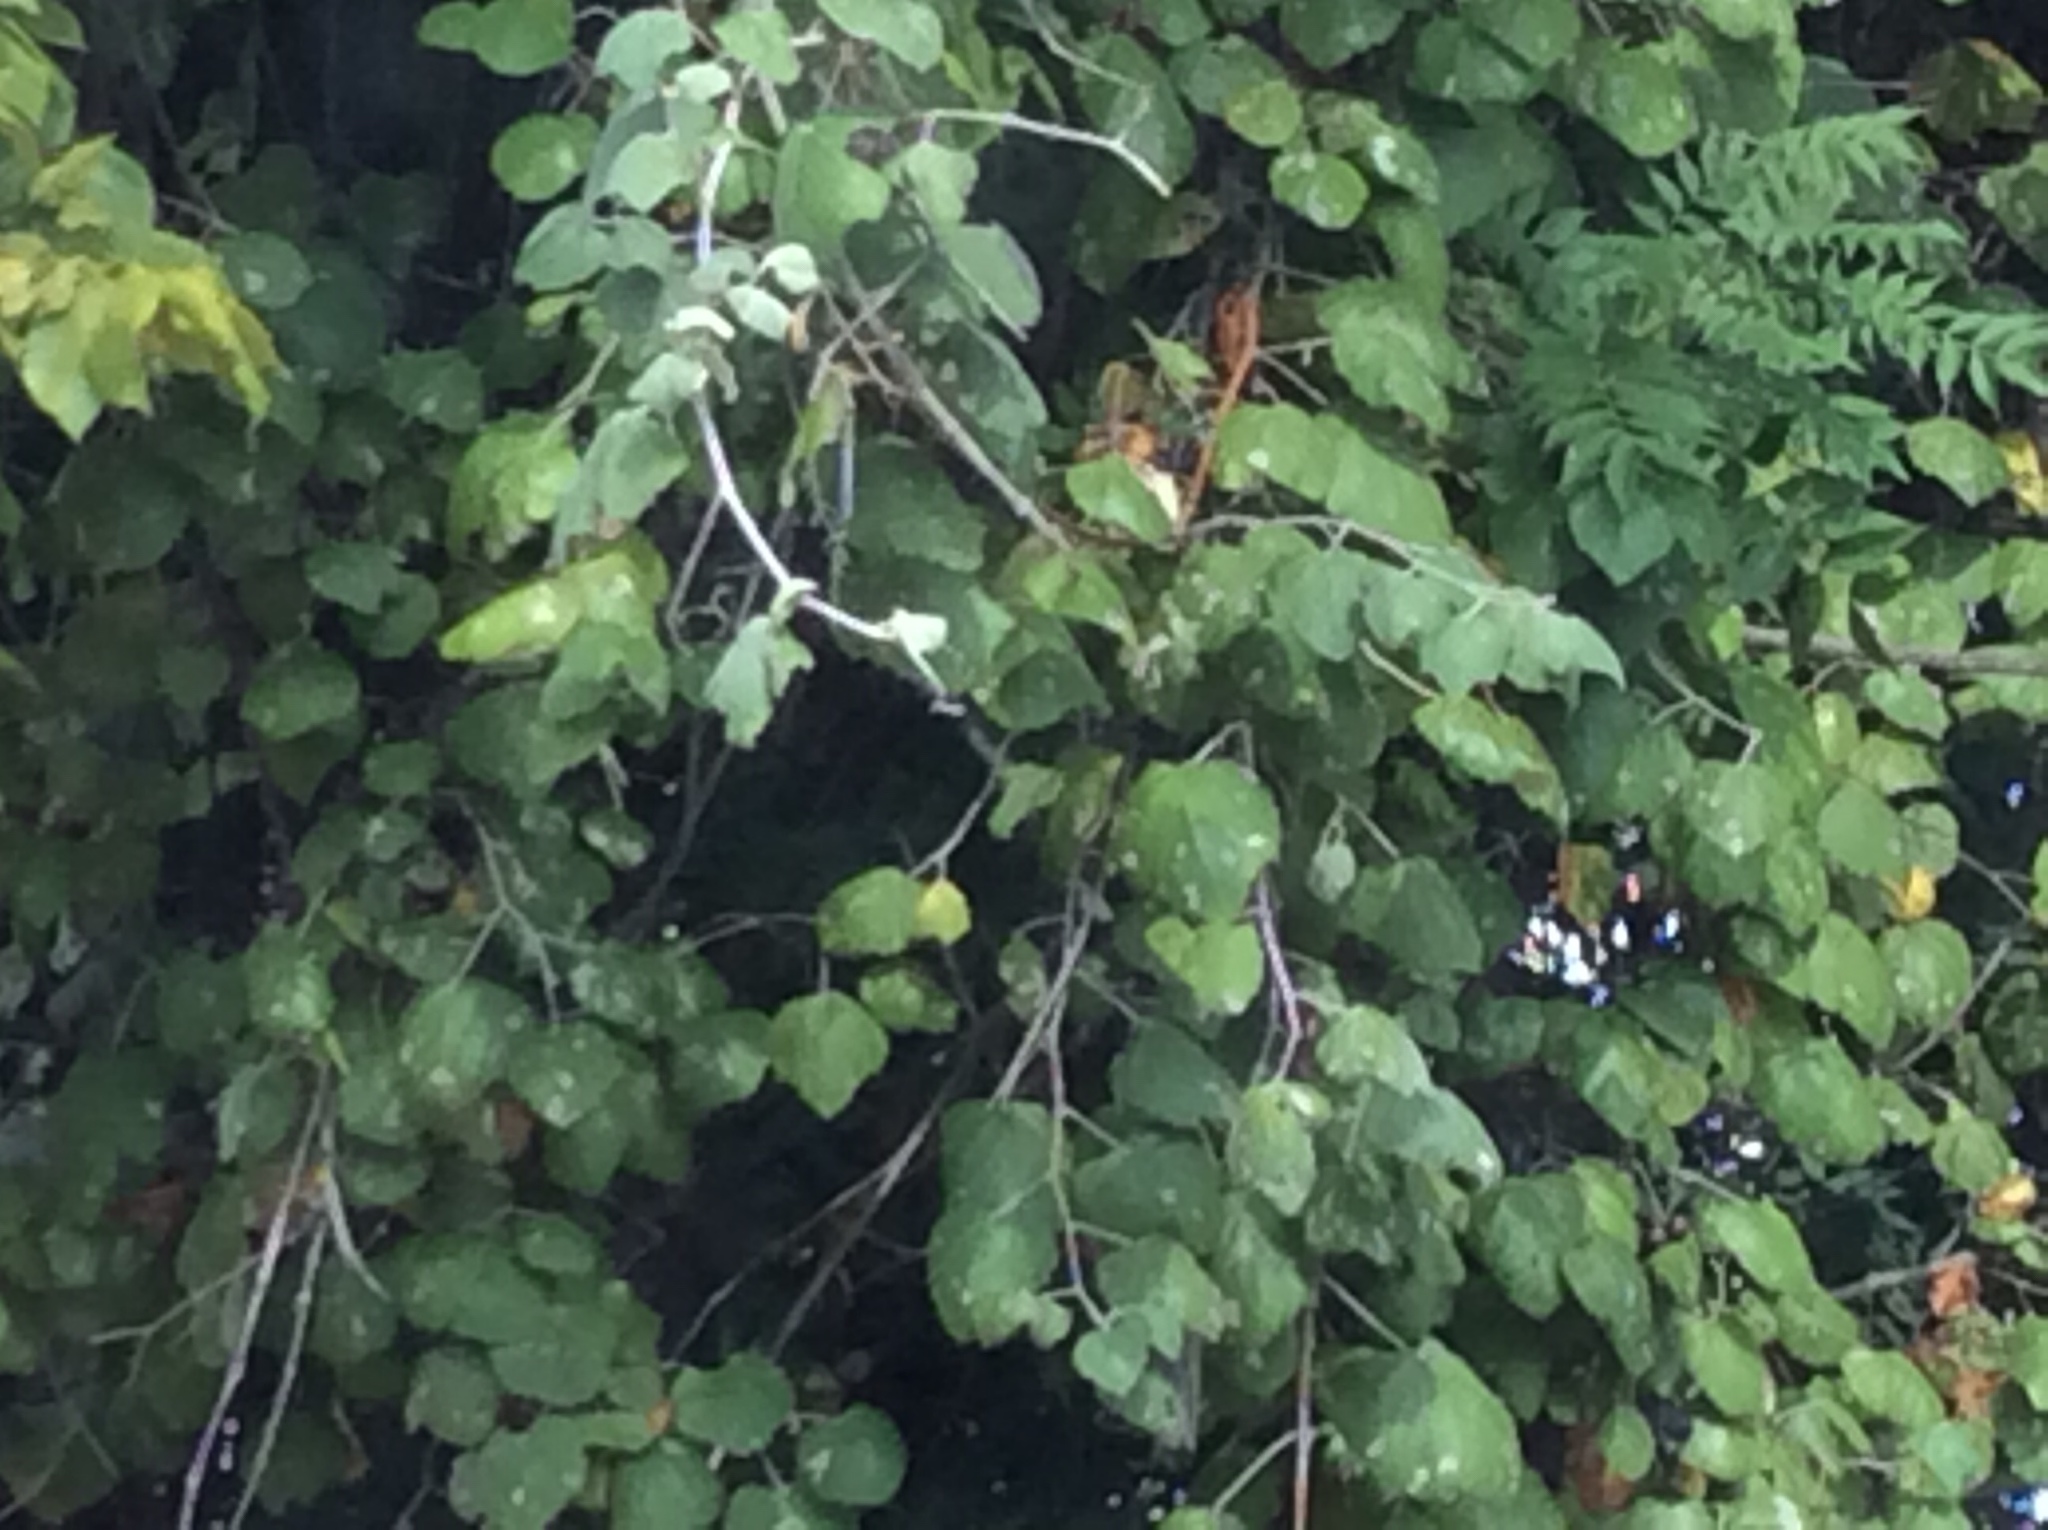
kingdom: Plantae
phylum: Tracheophyta
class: Magnoliopsida
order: Vitales
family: Vitaceae
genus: Vitis
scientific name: Vitis mustangensis
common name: Mustang grape
